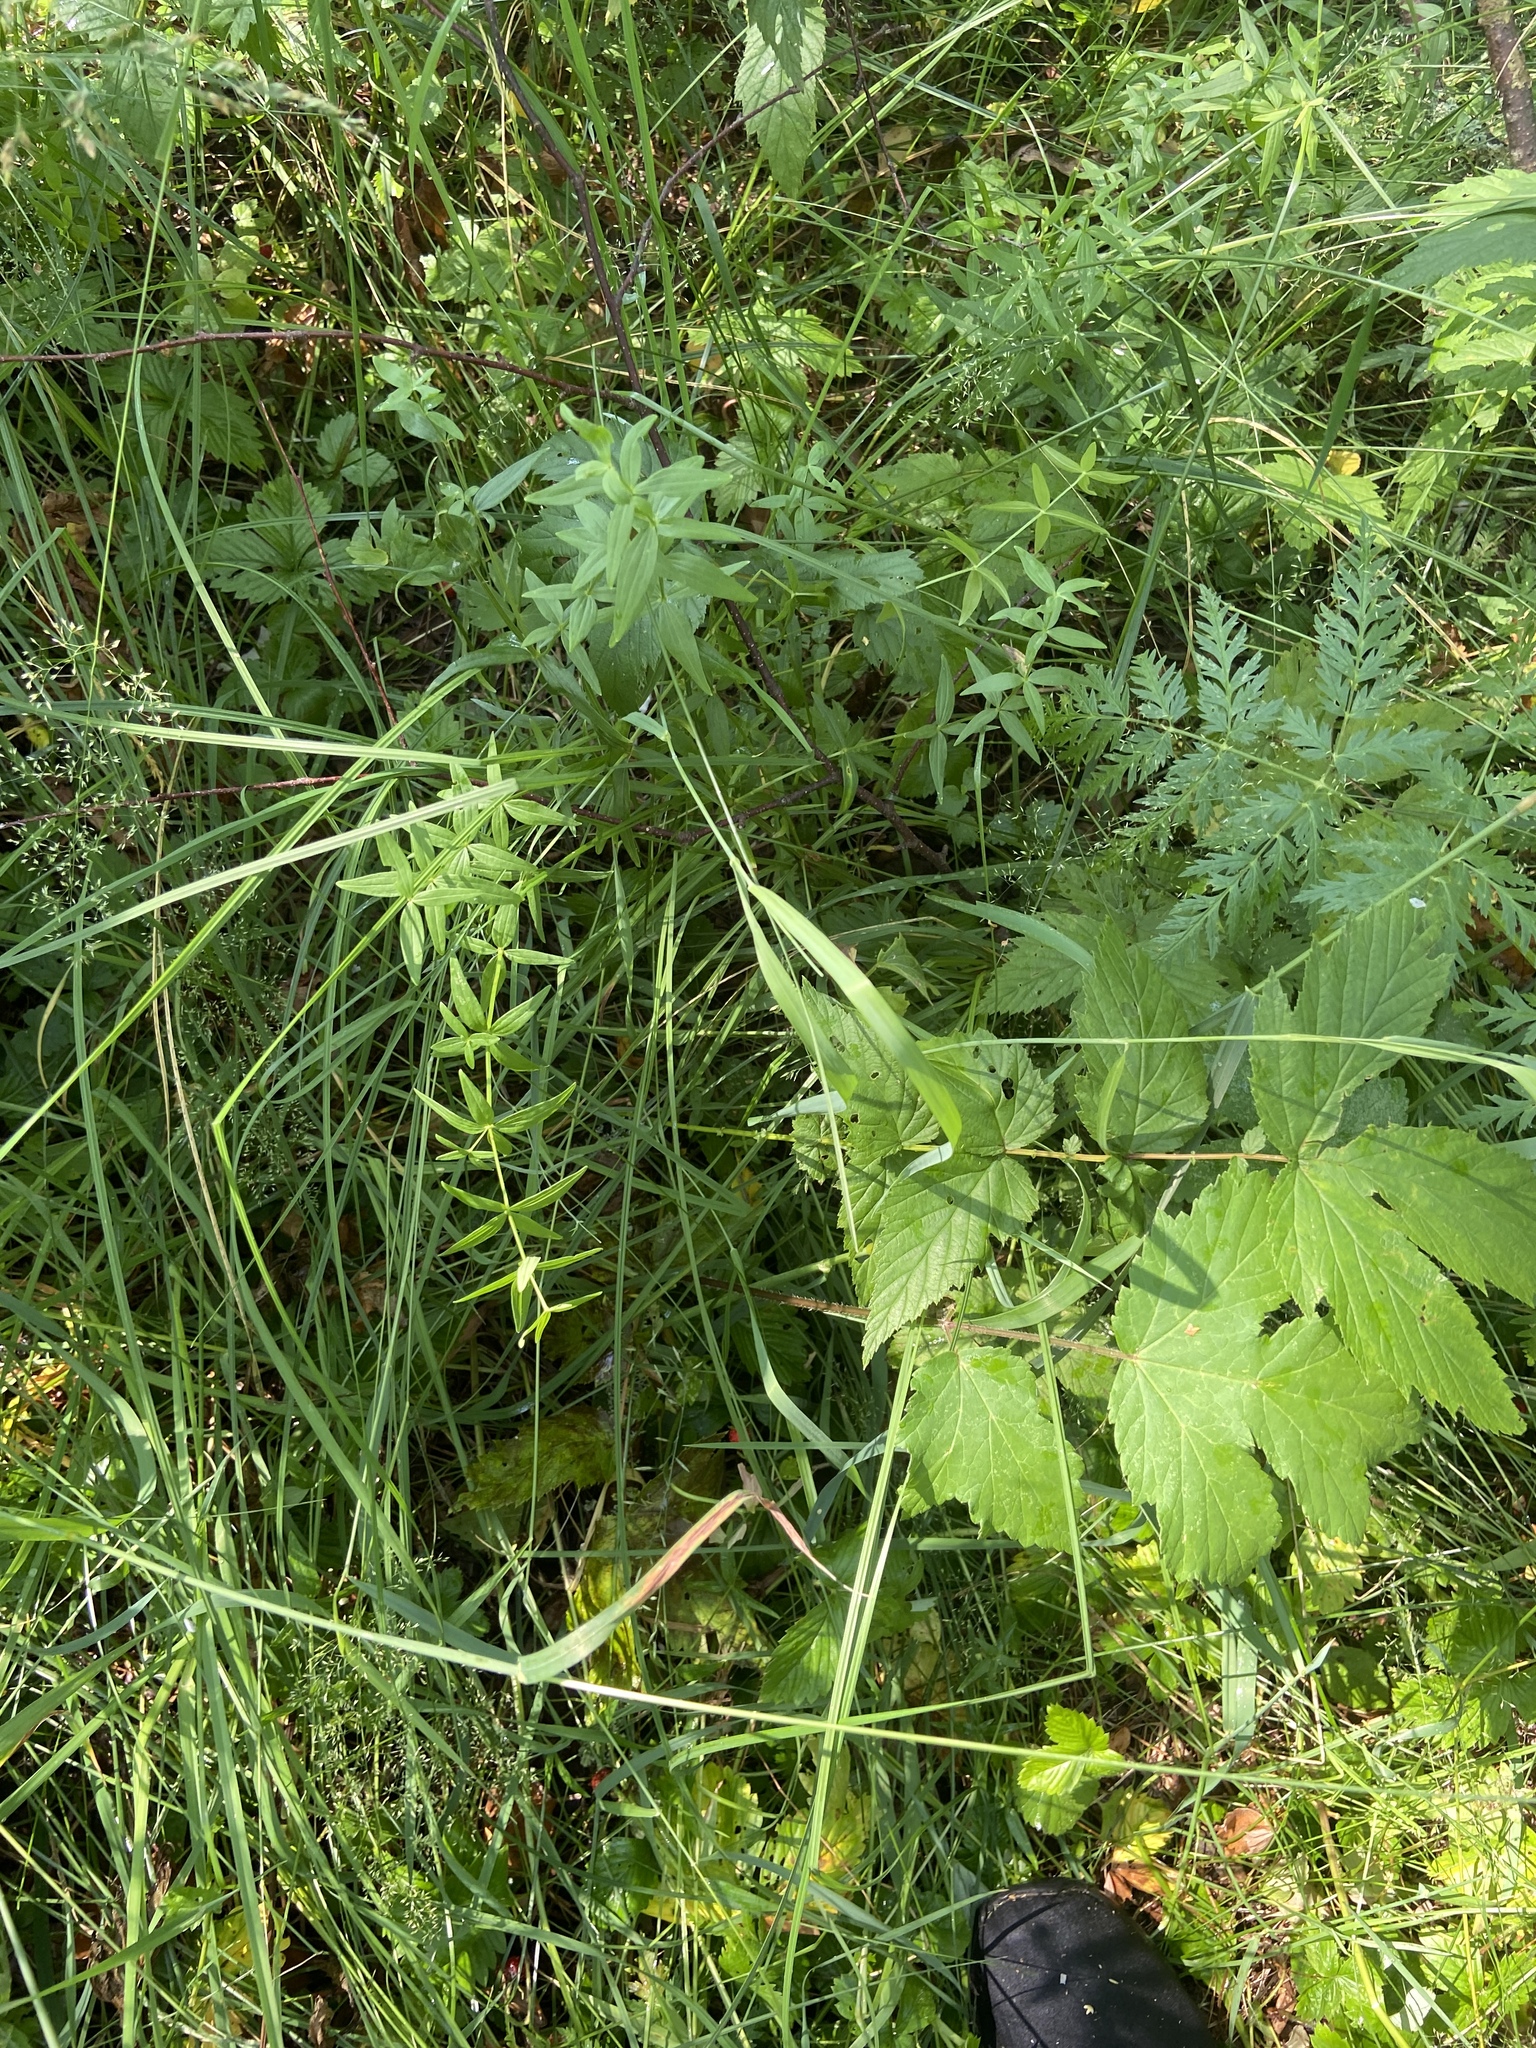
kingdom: Plantae
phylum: Tracheophyta
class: Magnoliopsida
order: Apiales
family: Apiaceae
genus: Anthriscus
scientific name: Anthriscus sylvestris
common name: Cow parsley
